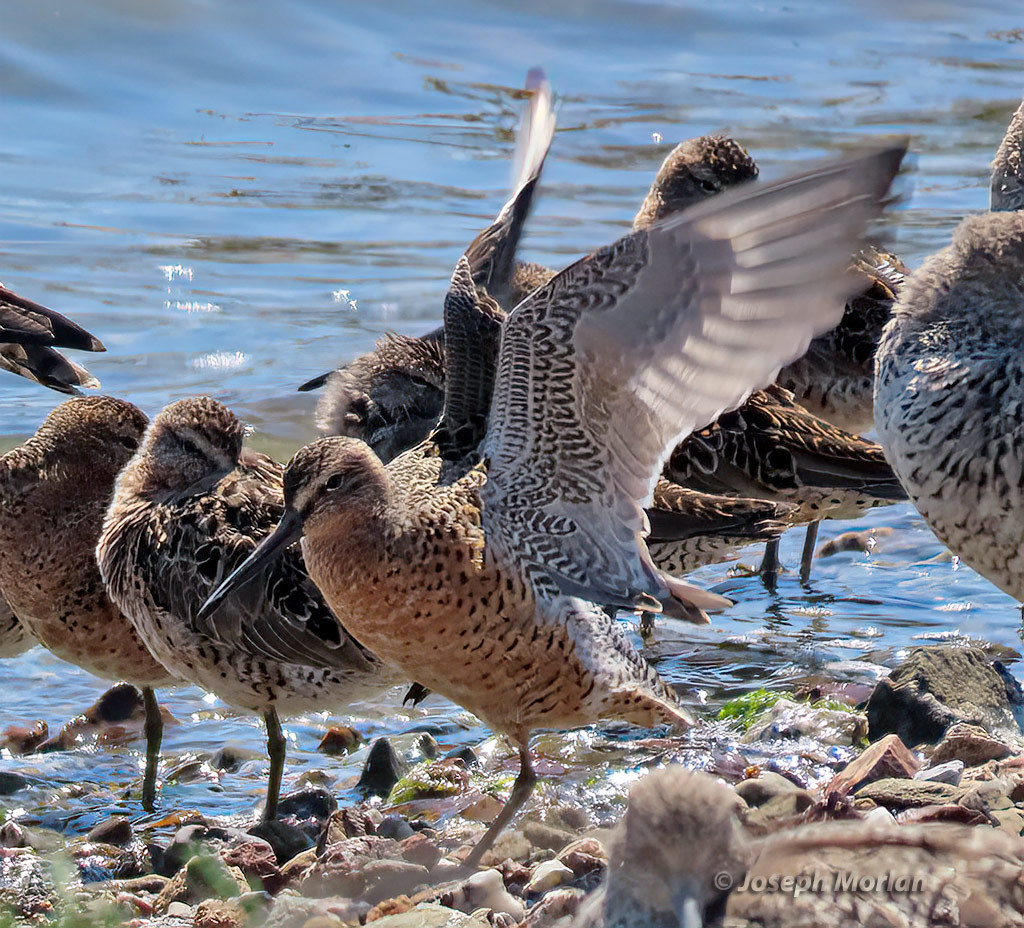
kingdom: Animalia
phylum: Chordata
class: Aves
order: Charadriiformes
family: Scolopacidae
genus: Limnodromus
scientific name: Limnodromus griseus
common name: Short-billed dowitcher
